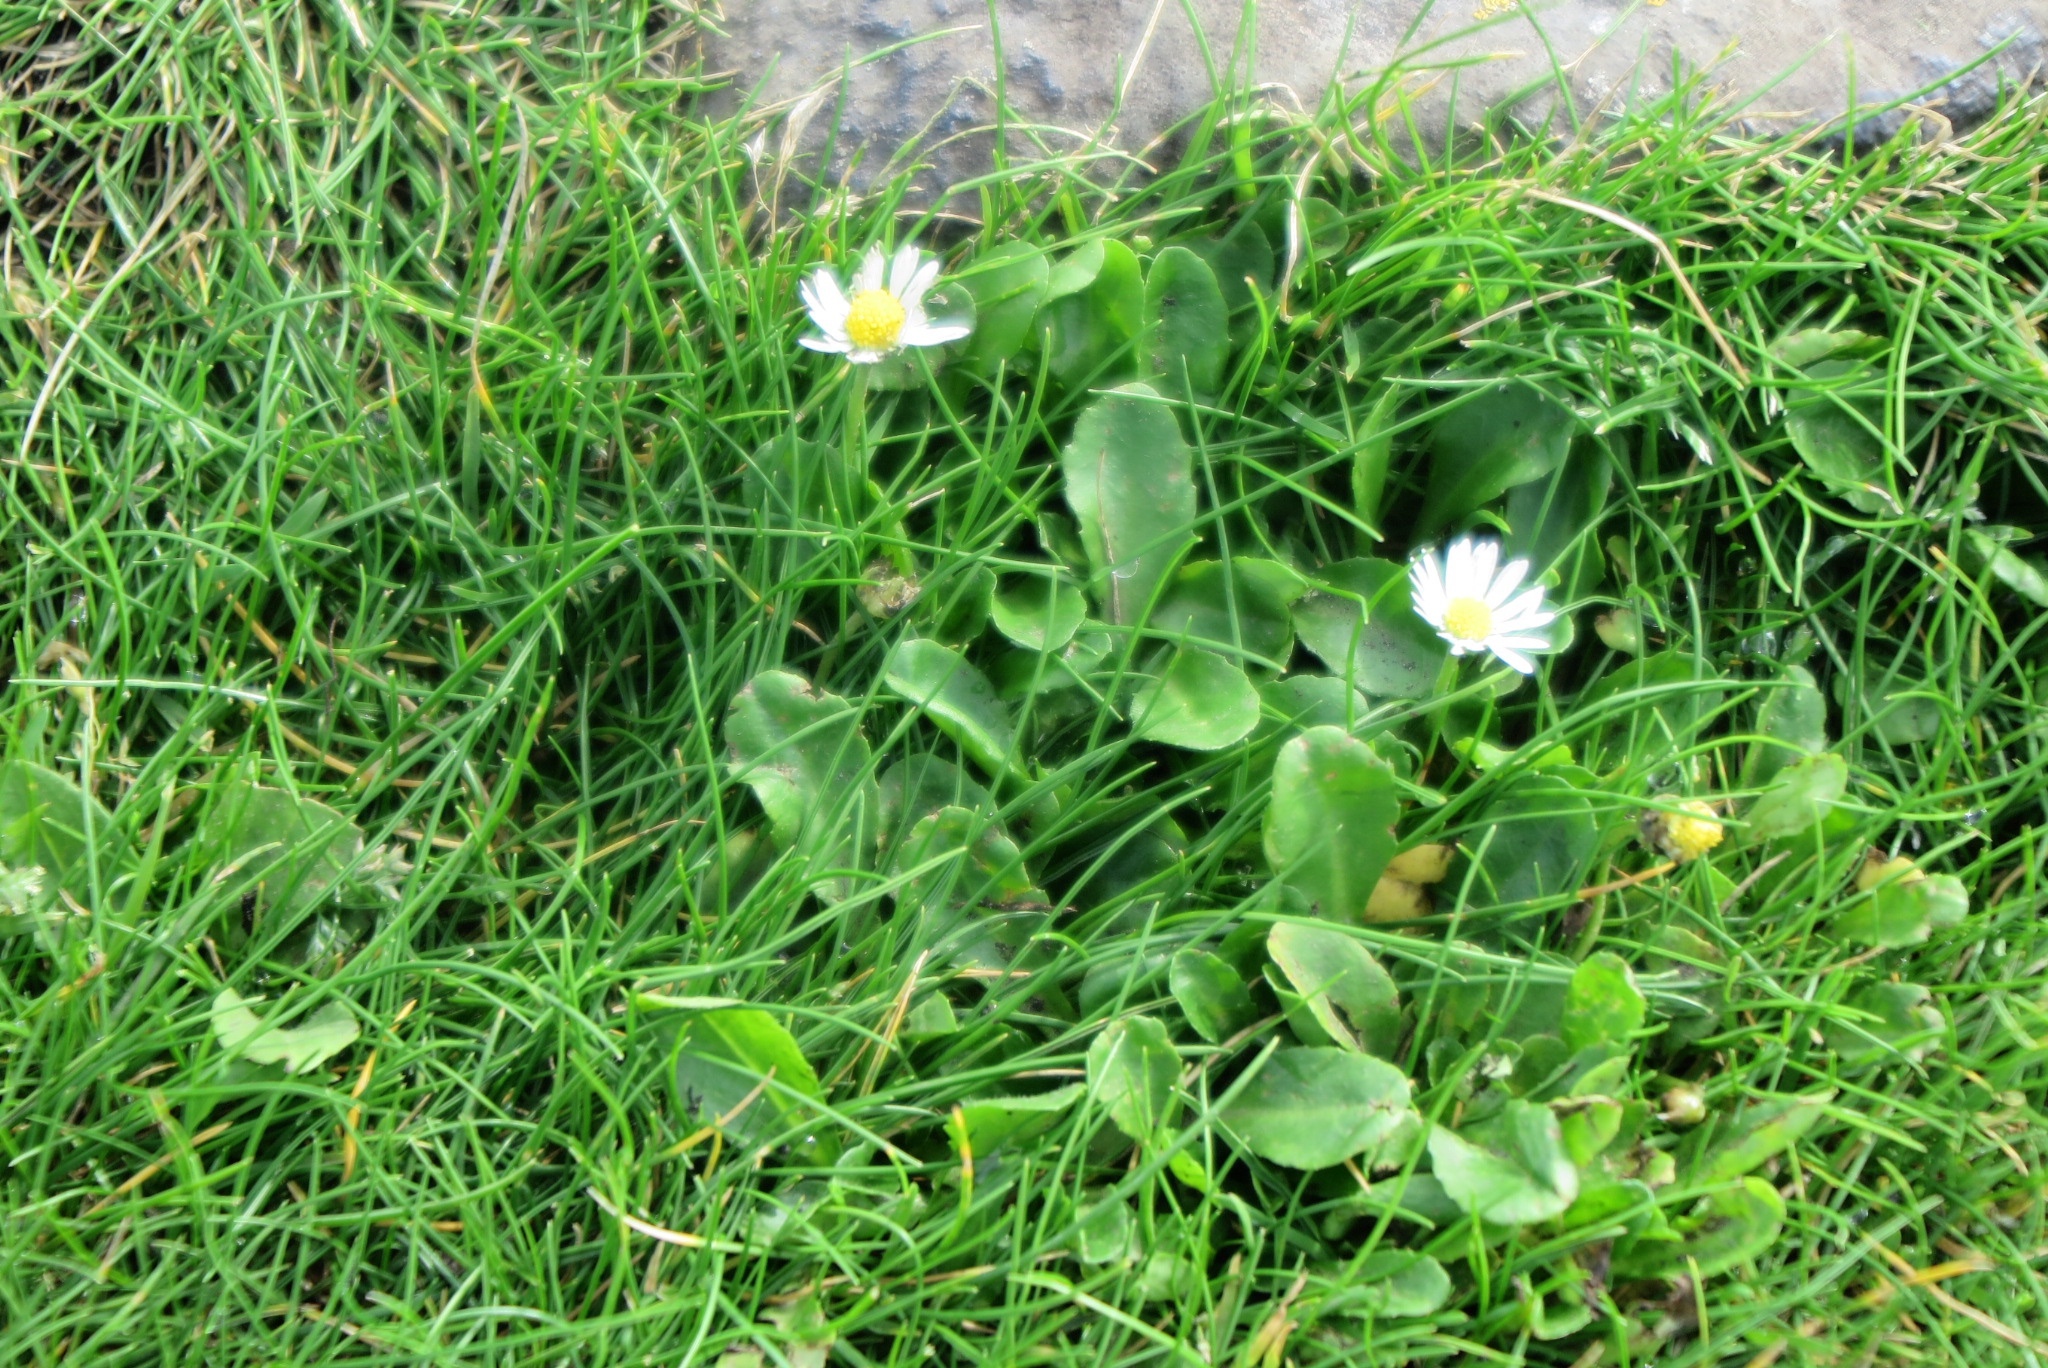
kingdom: Plantae
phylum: Tracheophyta
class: Magnoliopsida
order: Asterales
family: Asteraceae
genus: Bellis
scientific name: Bellis perennis
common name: Lawndaisy
